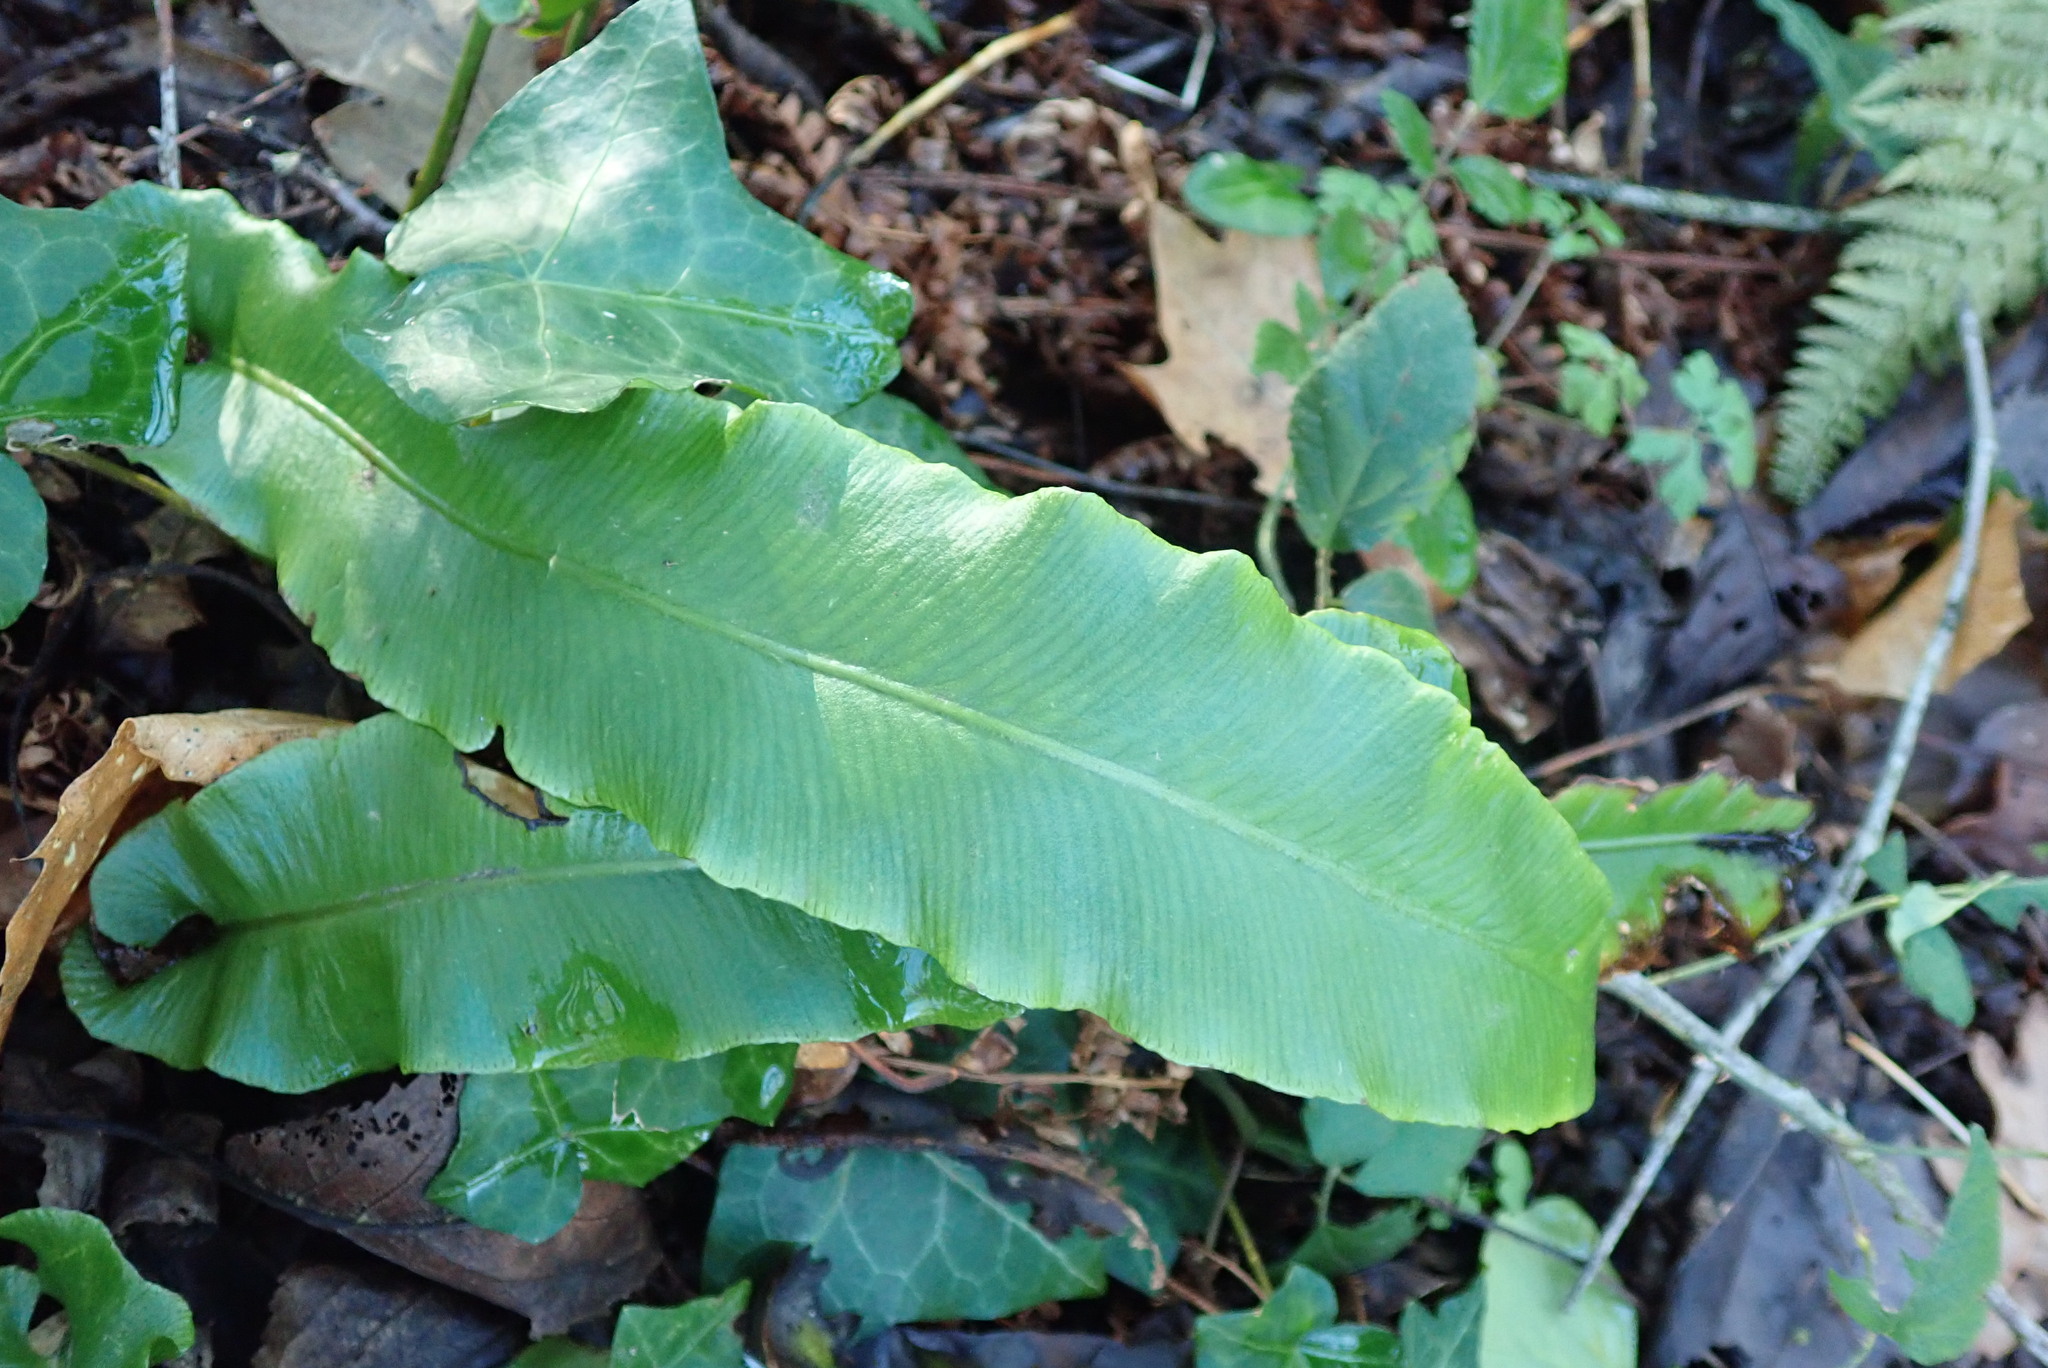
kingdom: Plantae
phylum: Tracheophyta
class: Polypodiopsida
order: Polypodiales
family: Aspleniaceae
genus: Asplenium
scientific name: Asplenium scolopendrium
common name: Hart's-tongue fern
